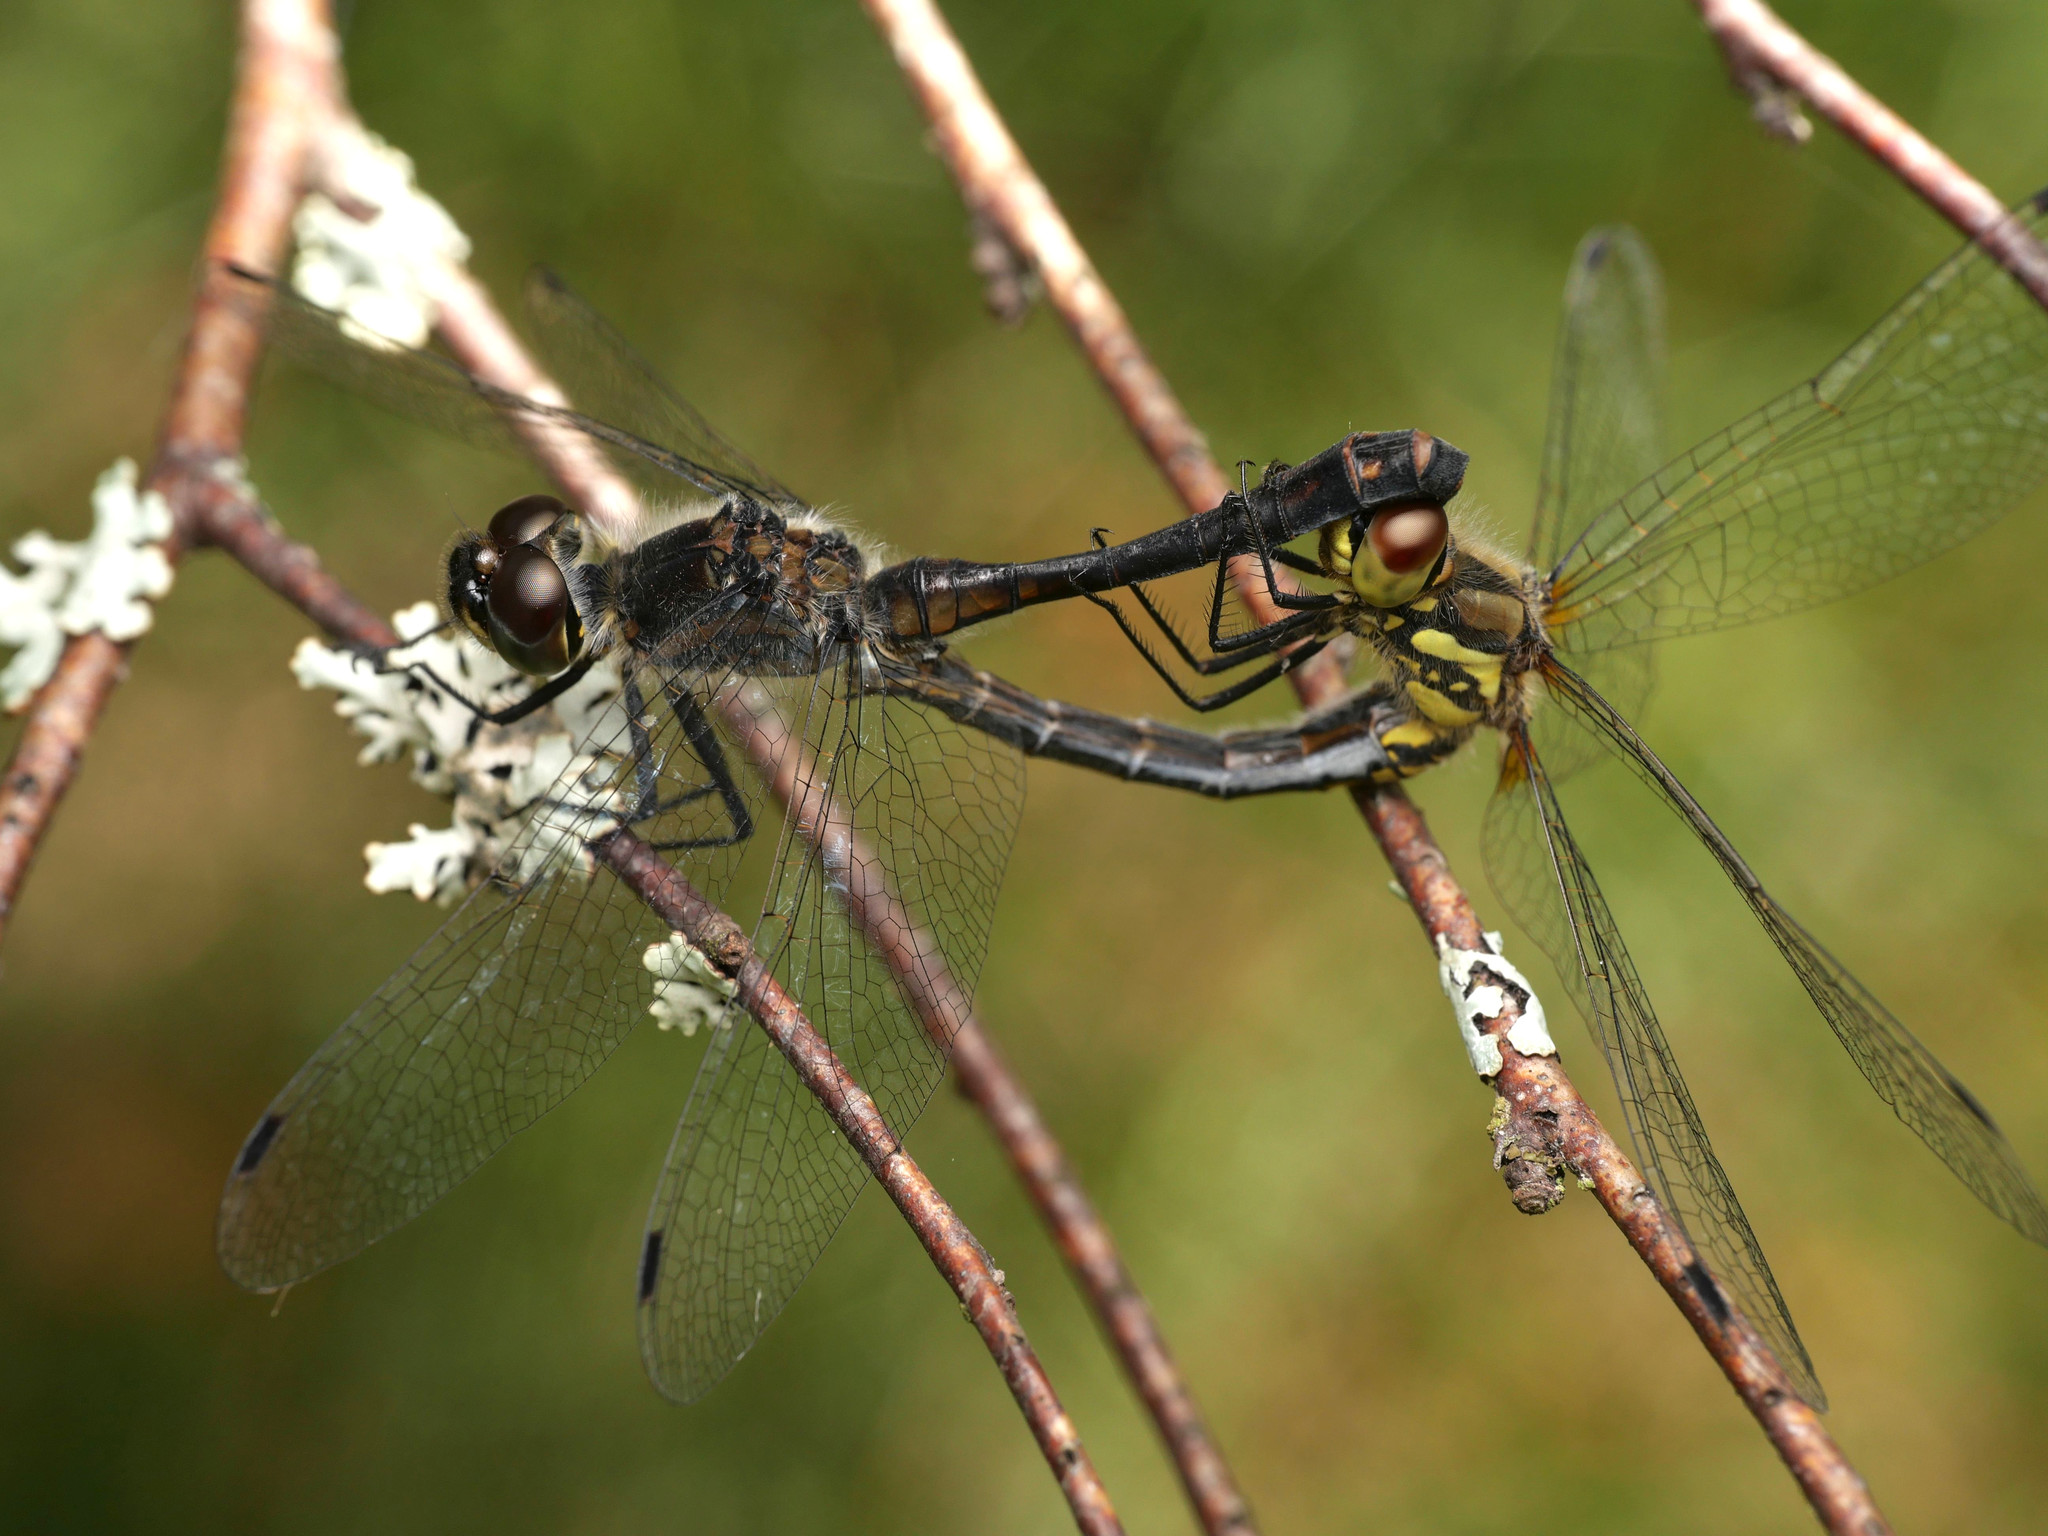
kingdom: Animalia
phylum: Arthropoda
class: Insecta
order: Odonata
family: Libellulidae
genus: Sympetrum
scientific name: Sympetrum danae
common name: Black darter
